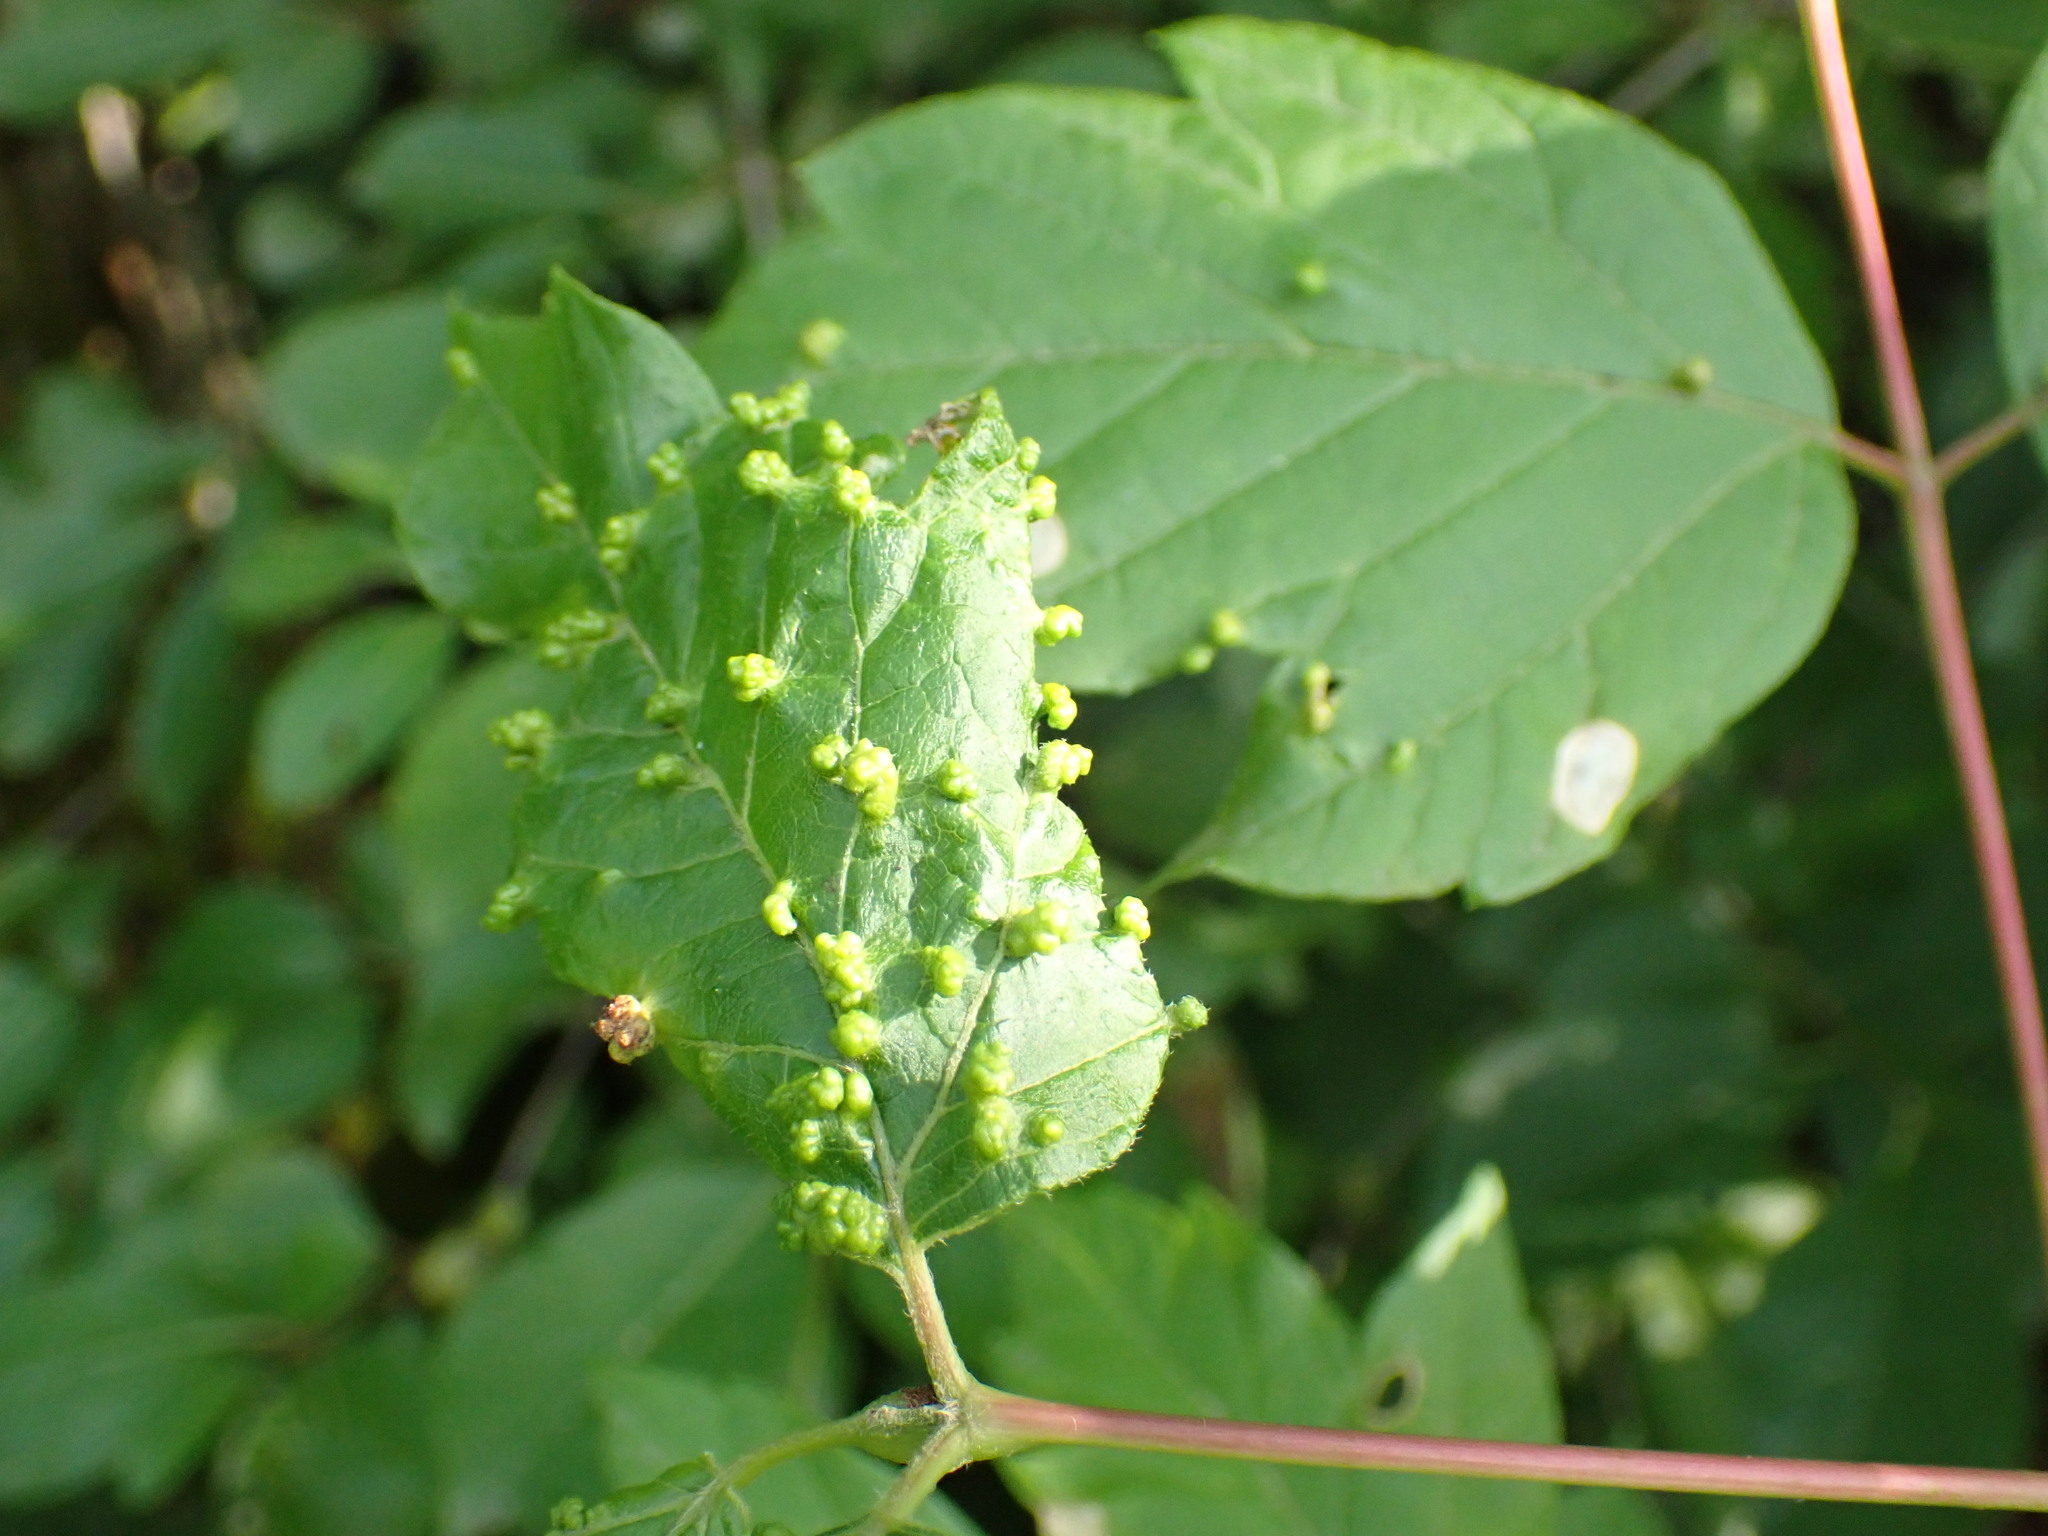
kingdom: Animalia
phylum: Arthropoda
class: Arachnida
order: Trombidiformes
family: Eriophyidae
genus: Aceria
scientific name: Aceria
